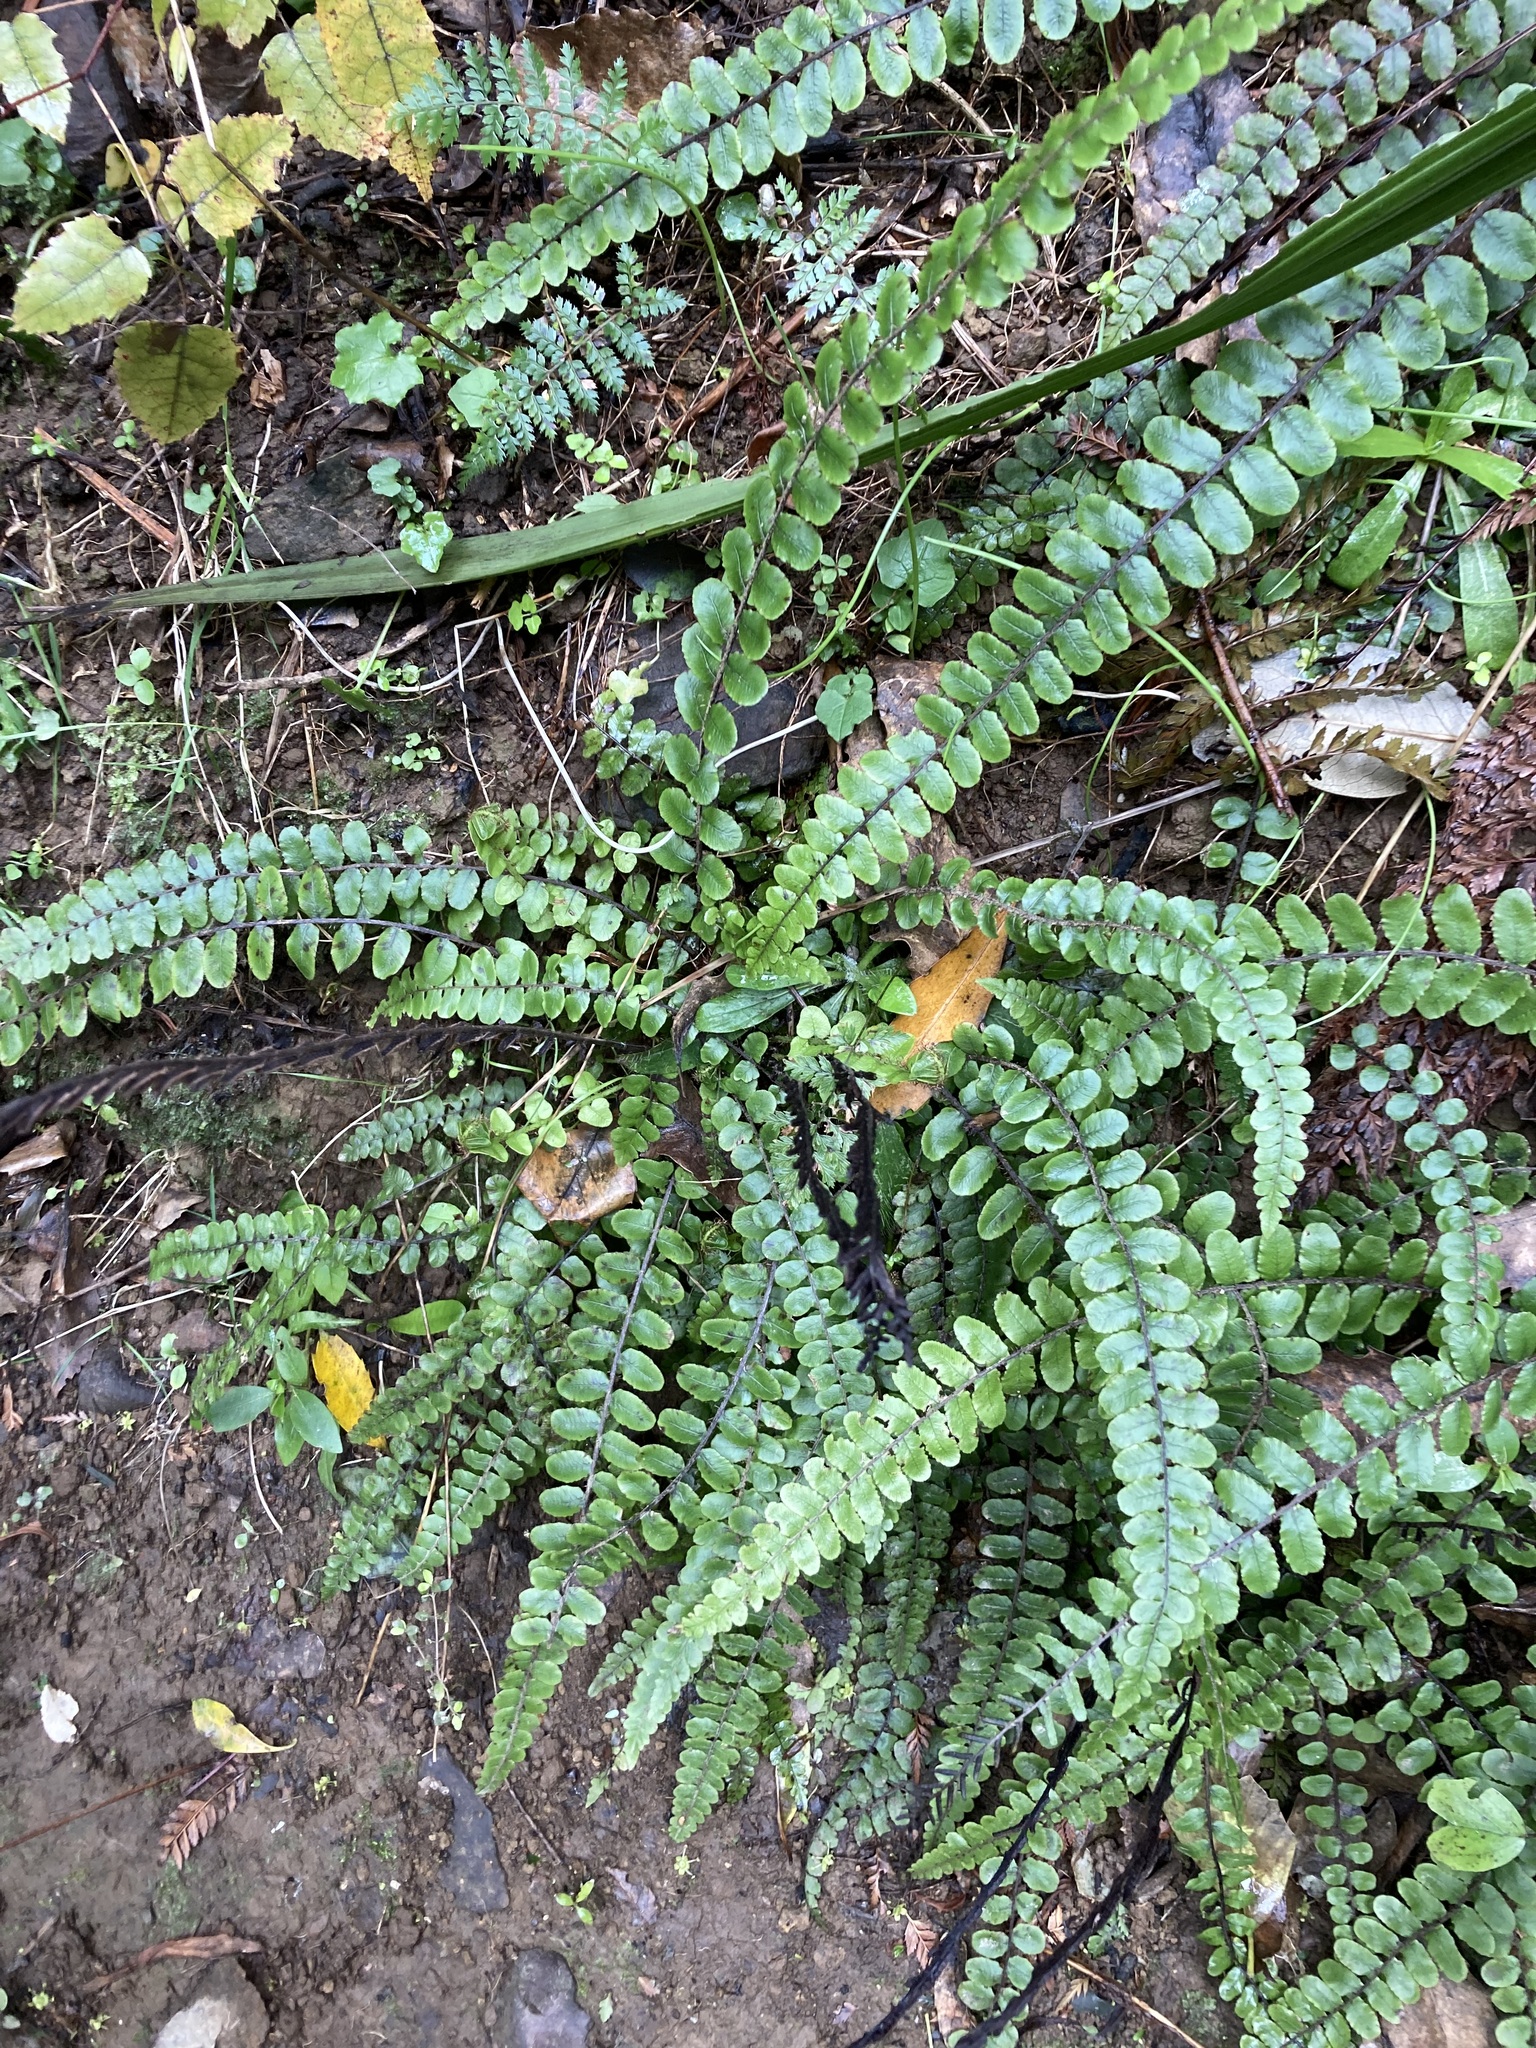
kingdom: Plantae
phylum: Tracheophyta
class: Polypodiopsida
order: Polypodiales
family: Blechnaceae
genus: Cranfillia
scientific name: Cranfillia fluviatilis
